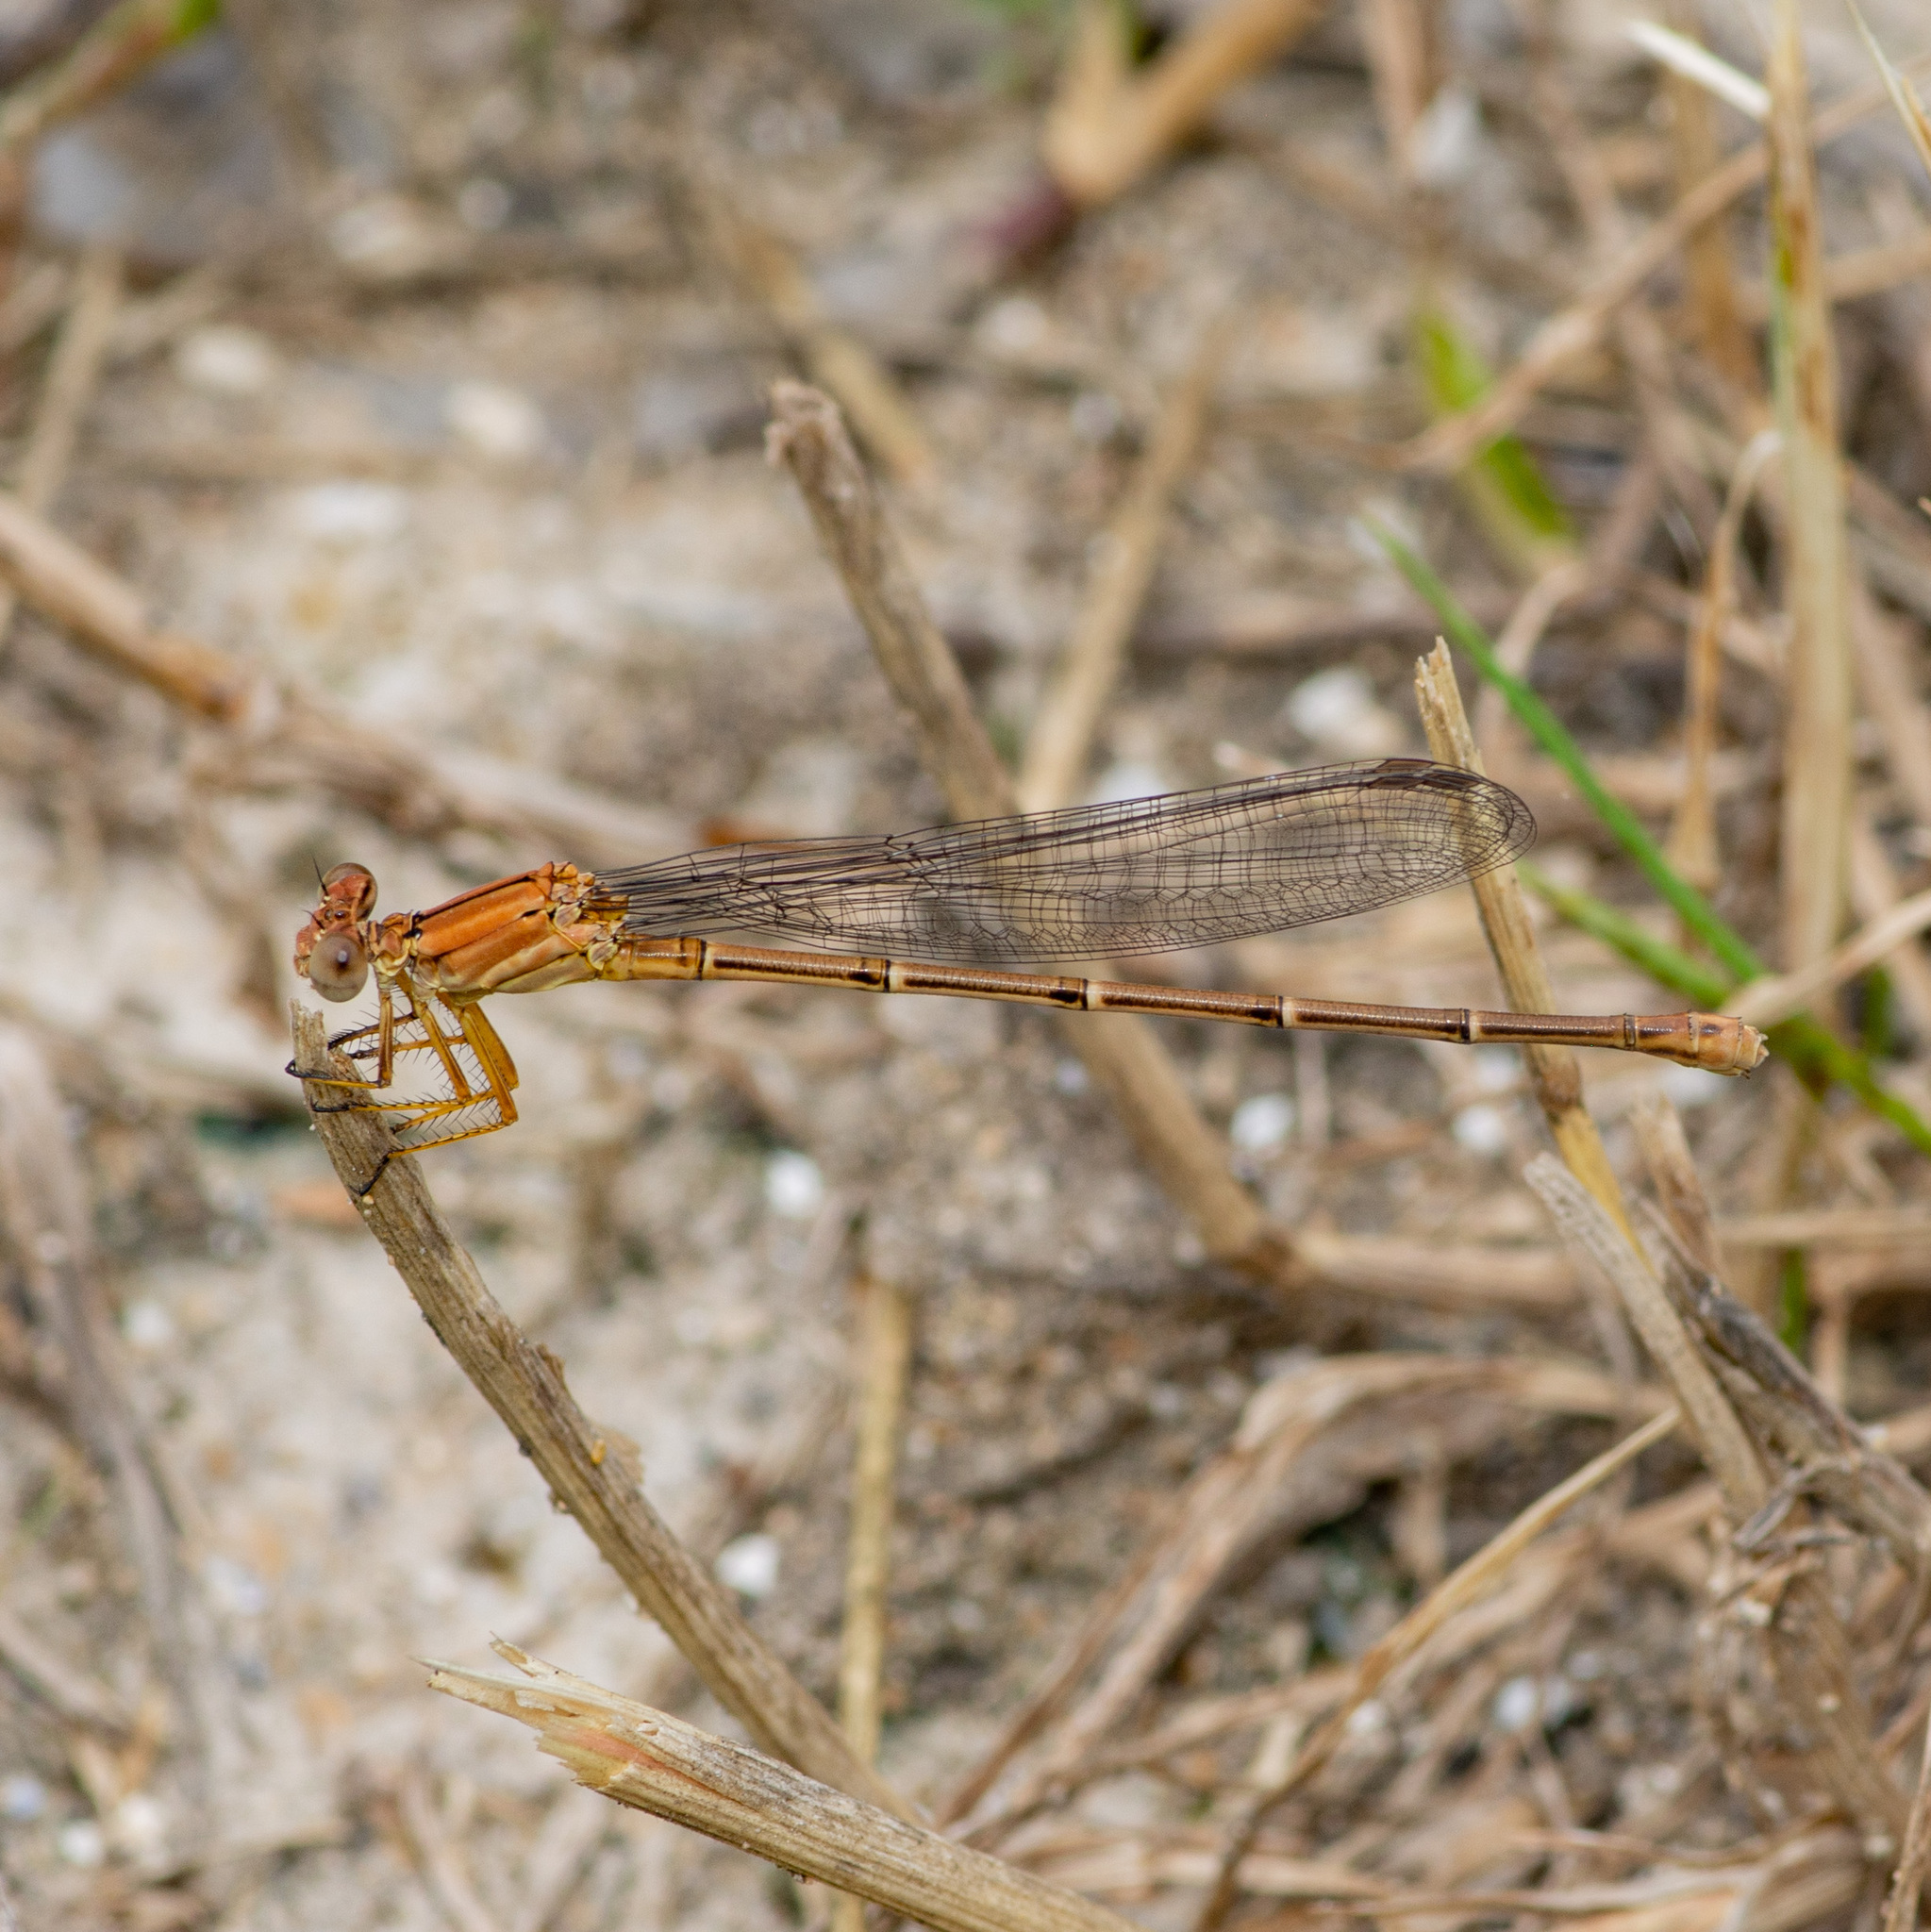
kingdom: Animalia
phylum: Arthropoda
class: Insecta
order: Odonata
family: Coenagrionidae
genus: Argia
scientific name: Argia moesta
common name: Powdered dancer
